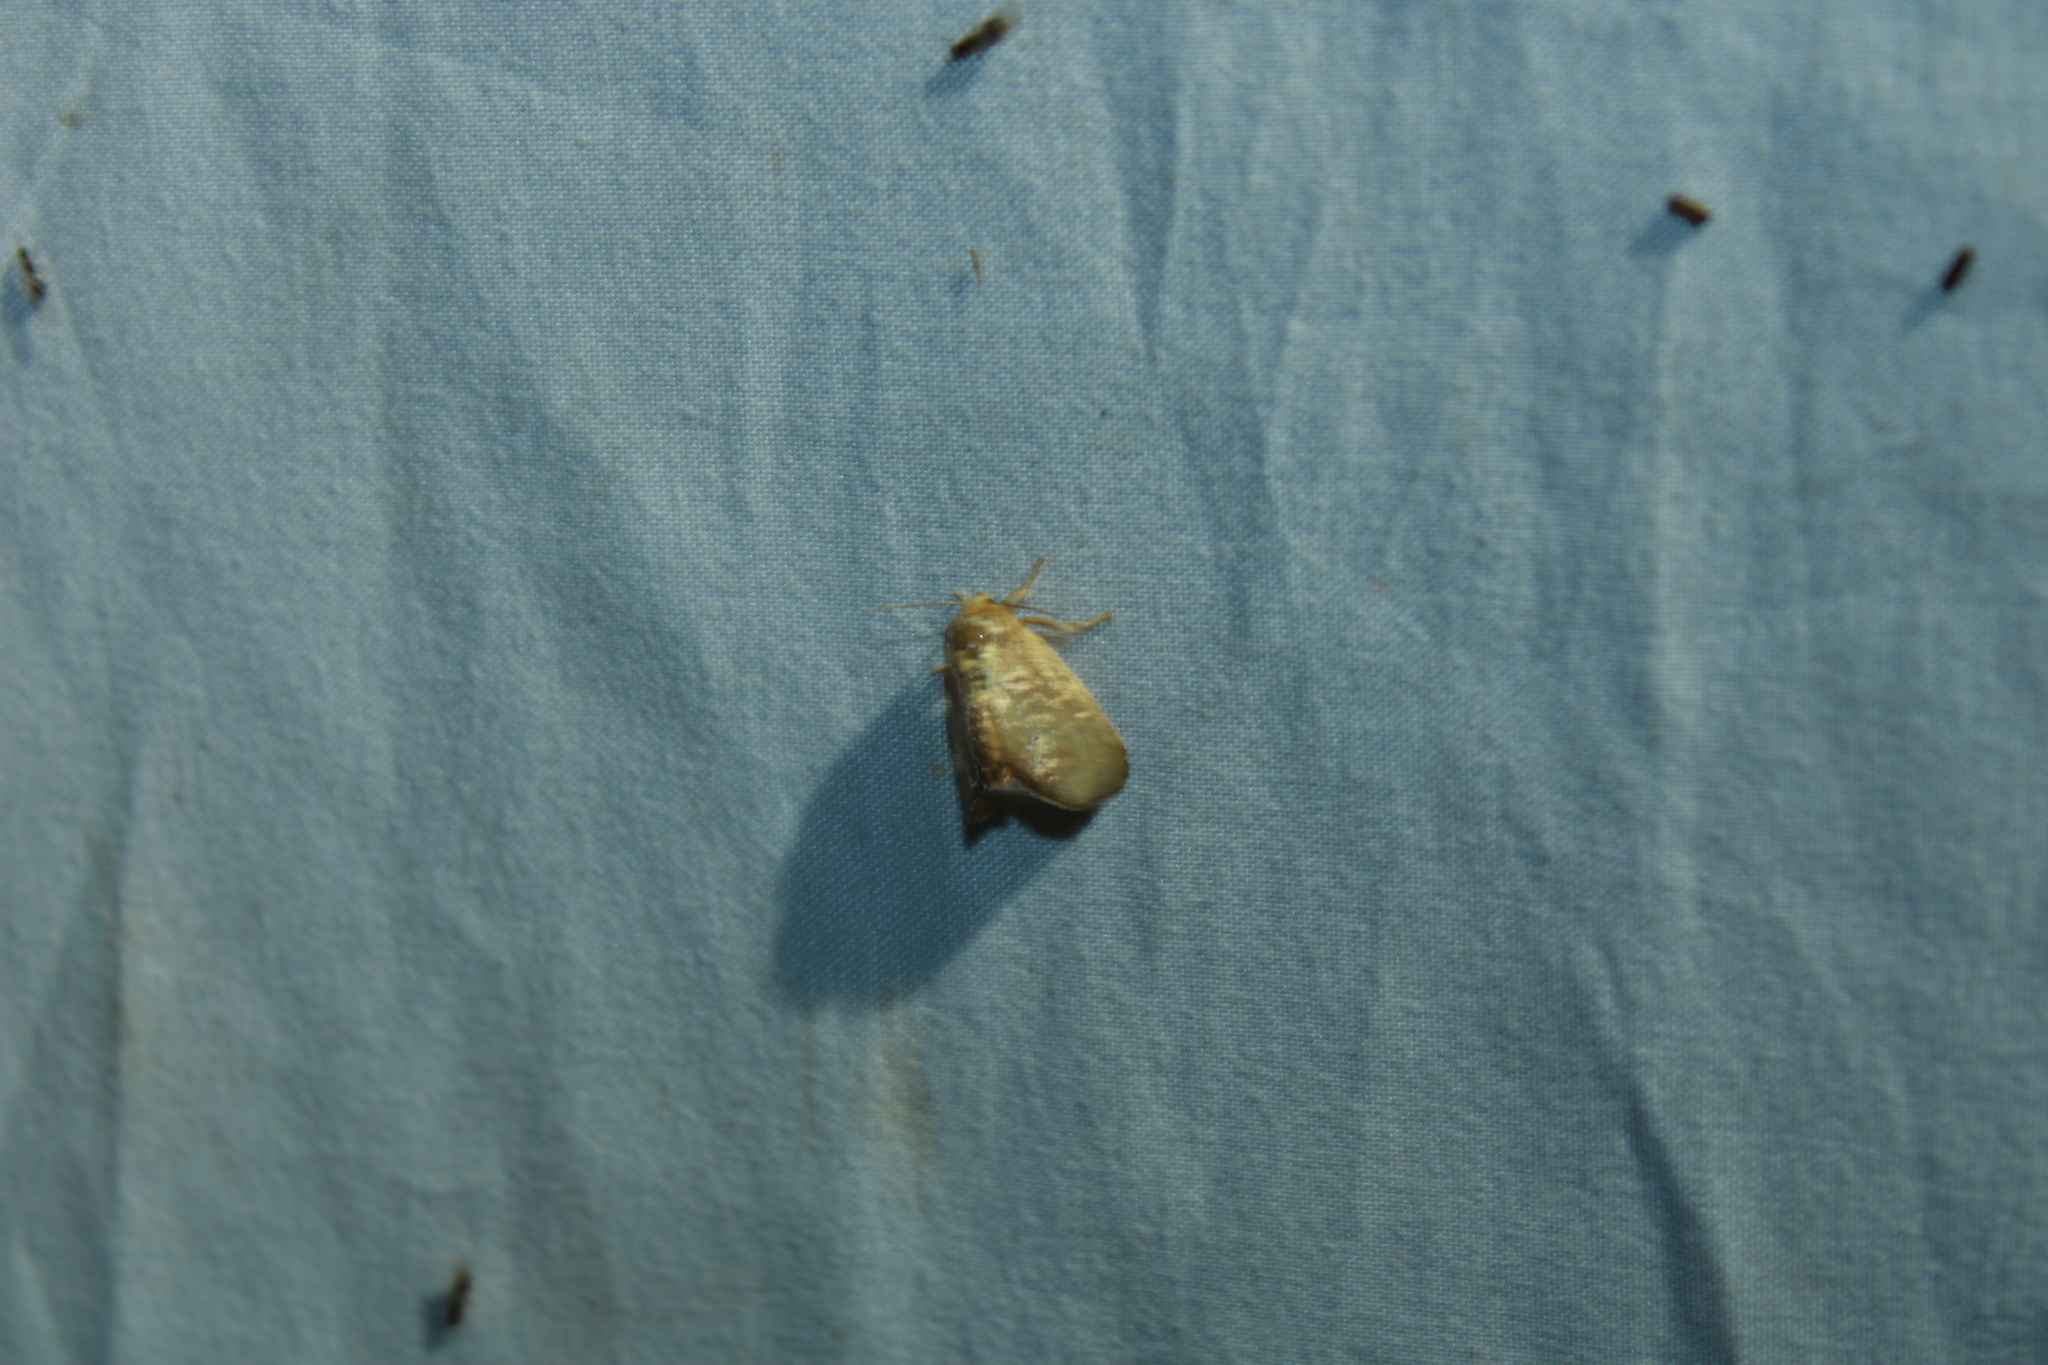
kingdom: Animalia
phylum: Arthropoda
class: Insecta
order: Lepidoptera
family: Limacodidae
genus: Isa
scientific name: Isa textula
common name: Crowned slug moth
